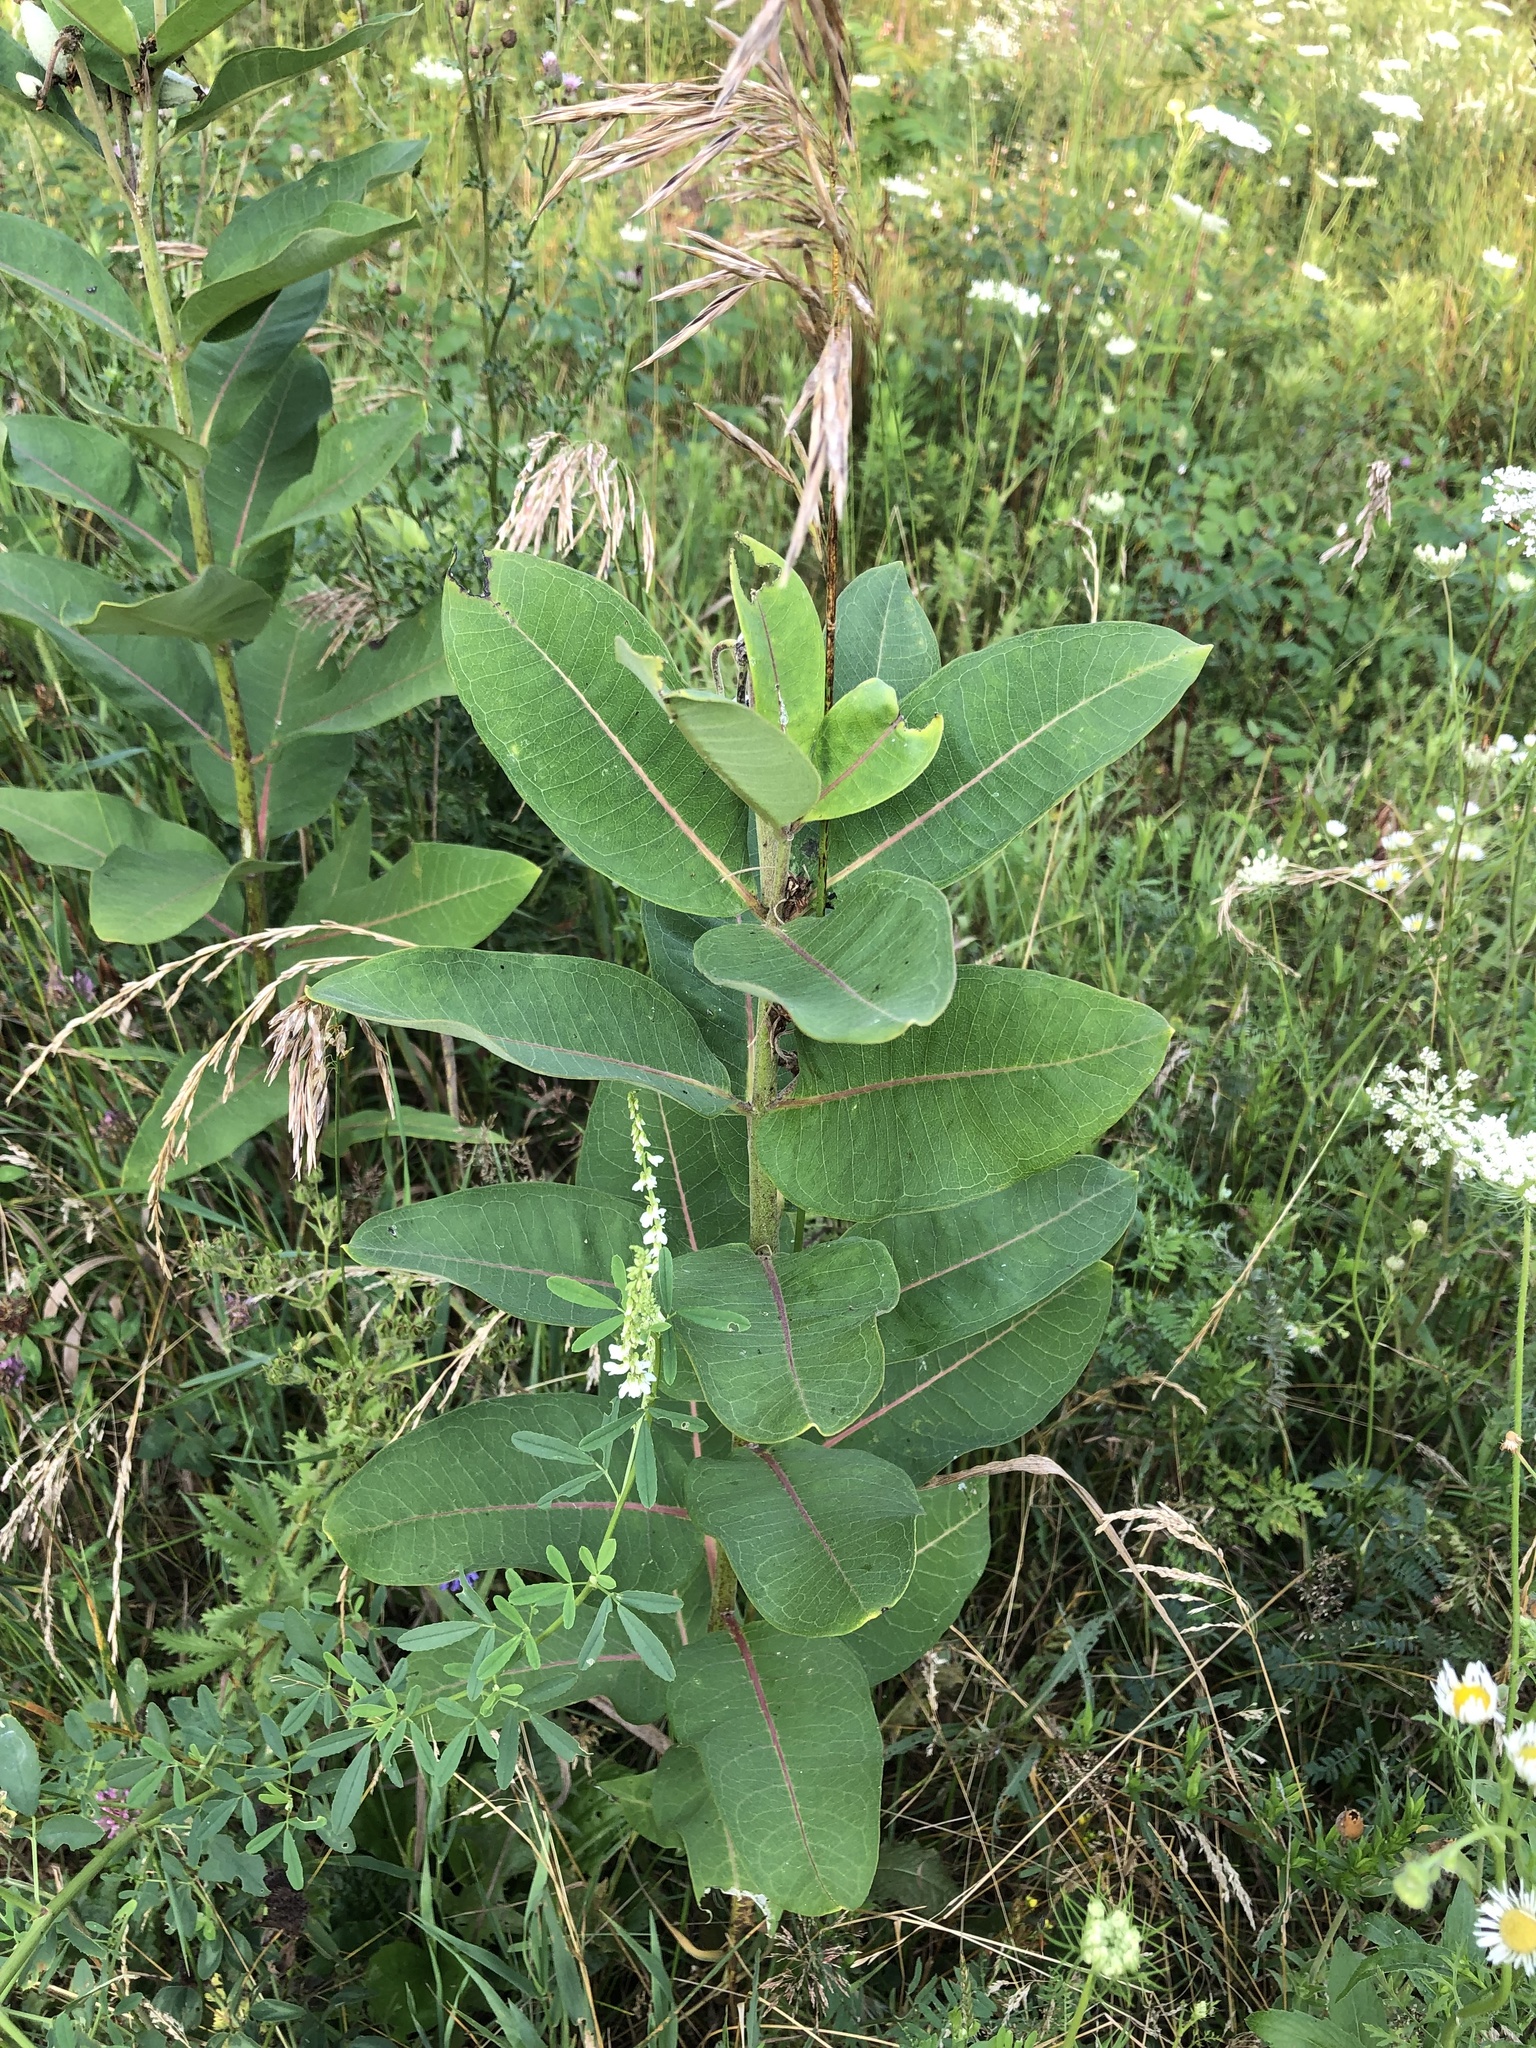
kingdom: Plantae
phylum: Tracheophyta
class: Magnoliopsida
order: Gentianales
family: Apocynaceae
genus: Asclepias
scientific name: Asclepias syriaca
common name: Common milkweed
